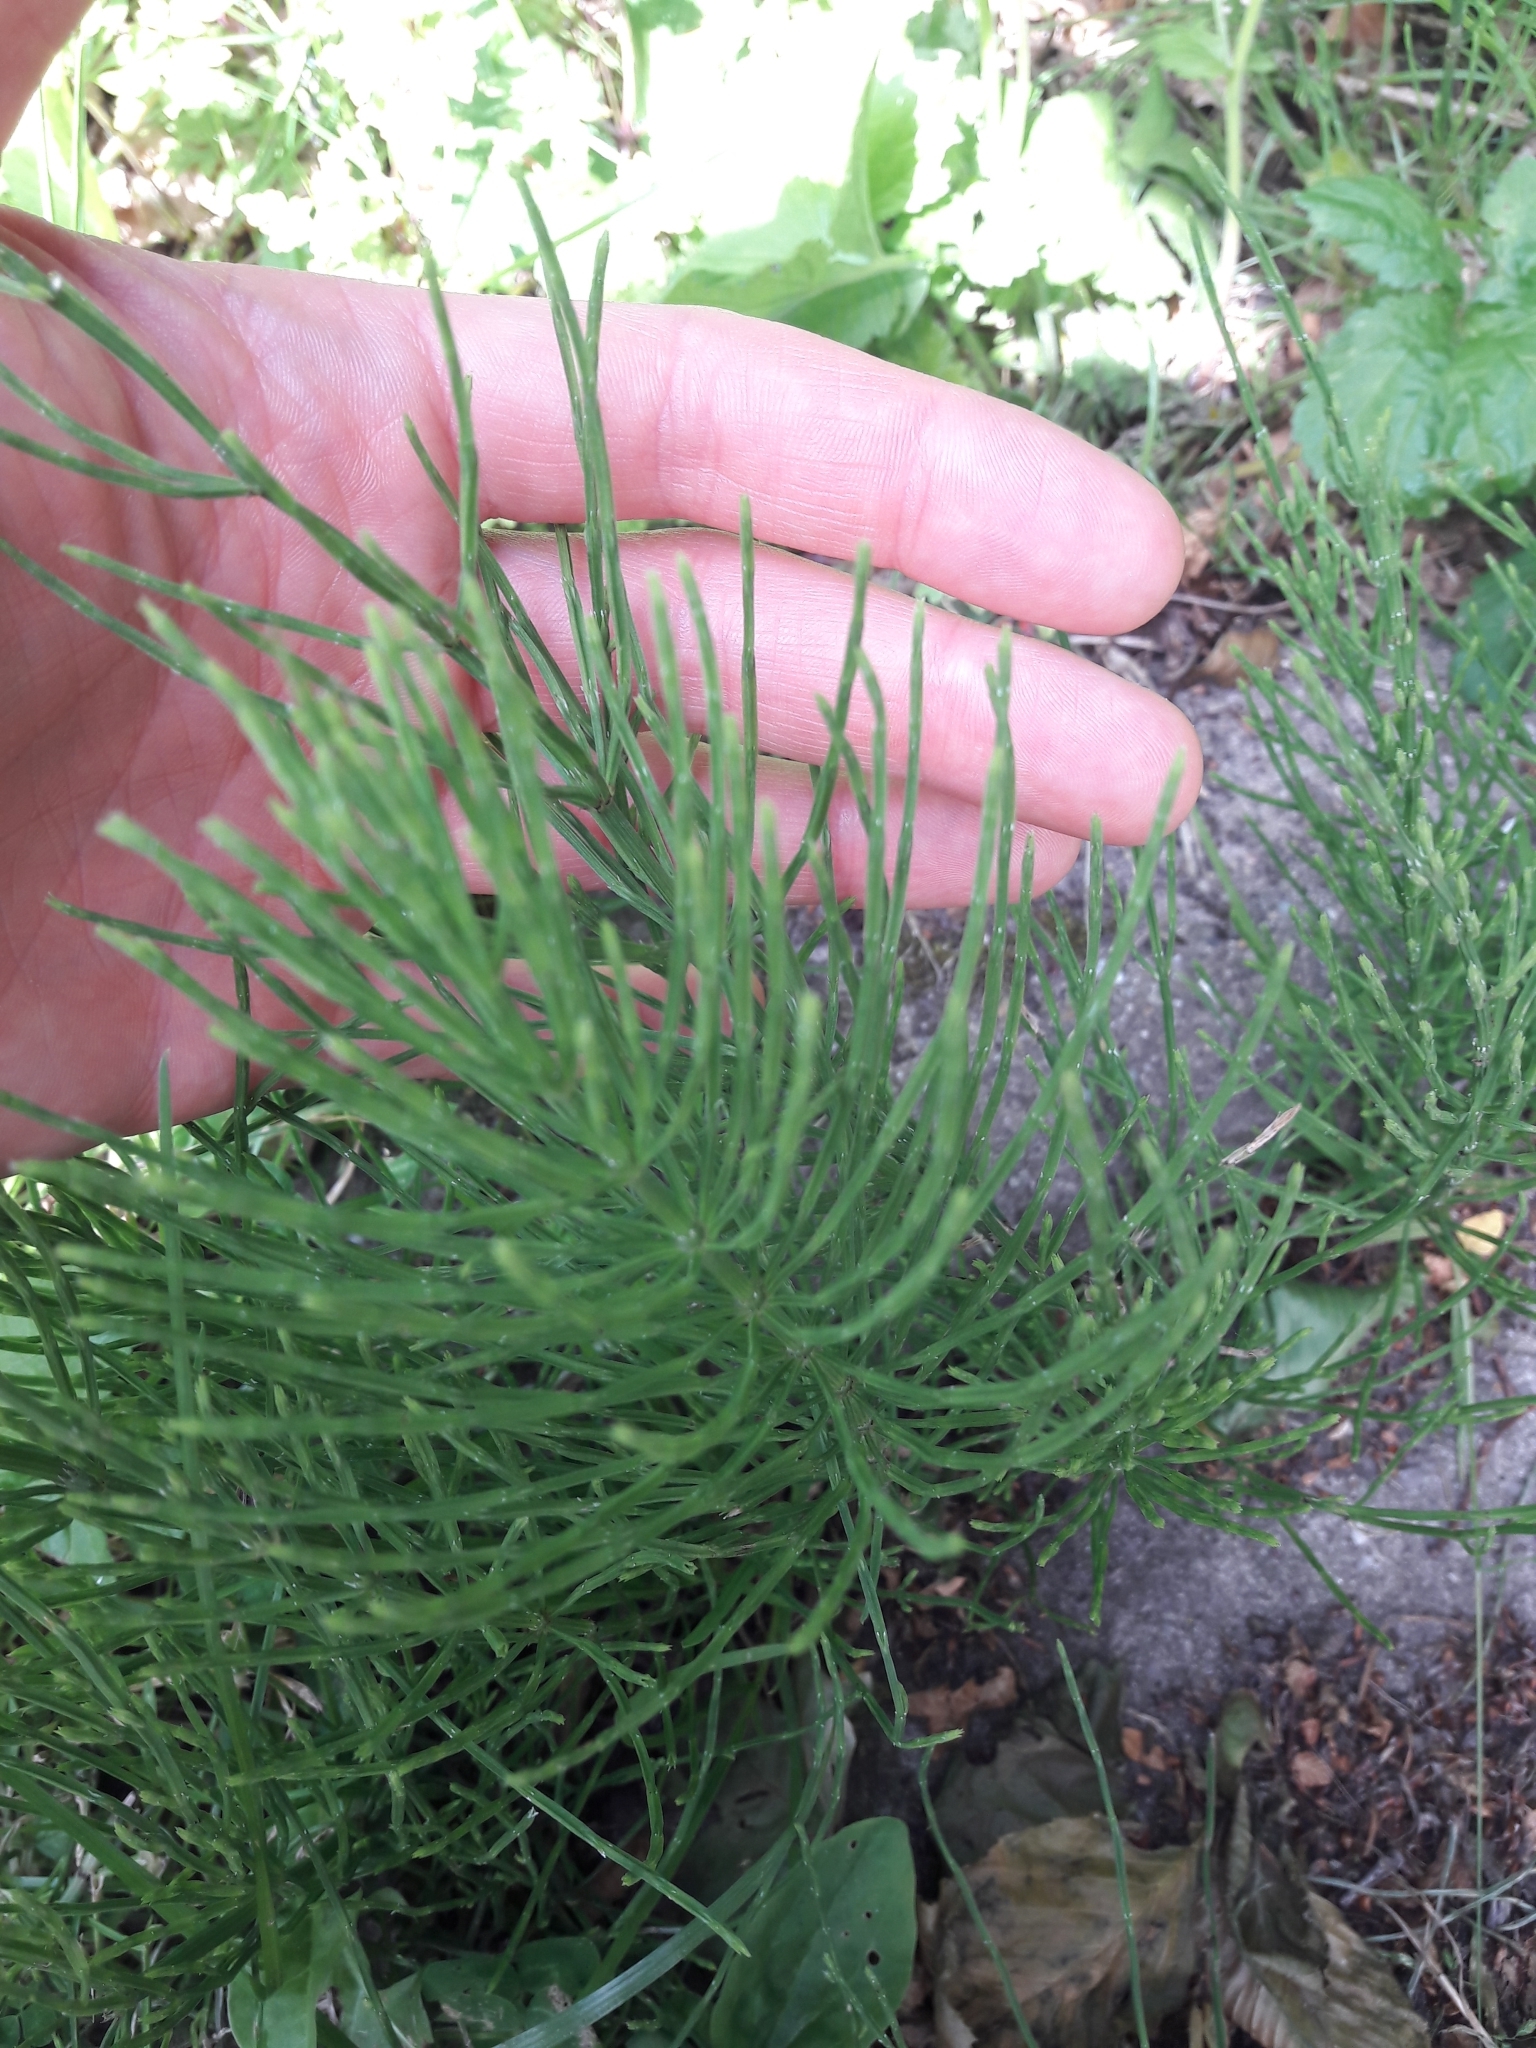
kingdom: Plantae
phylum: Tracheophyta
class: Polypodiopsida
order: Equisetales
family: Equisetaceae
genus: Equisetum
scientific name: Equisetum arvense
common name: Field horsetail
